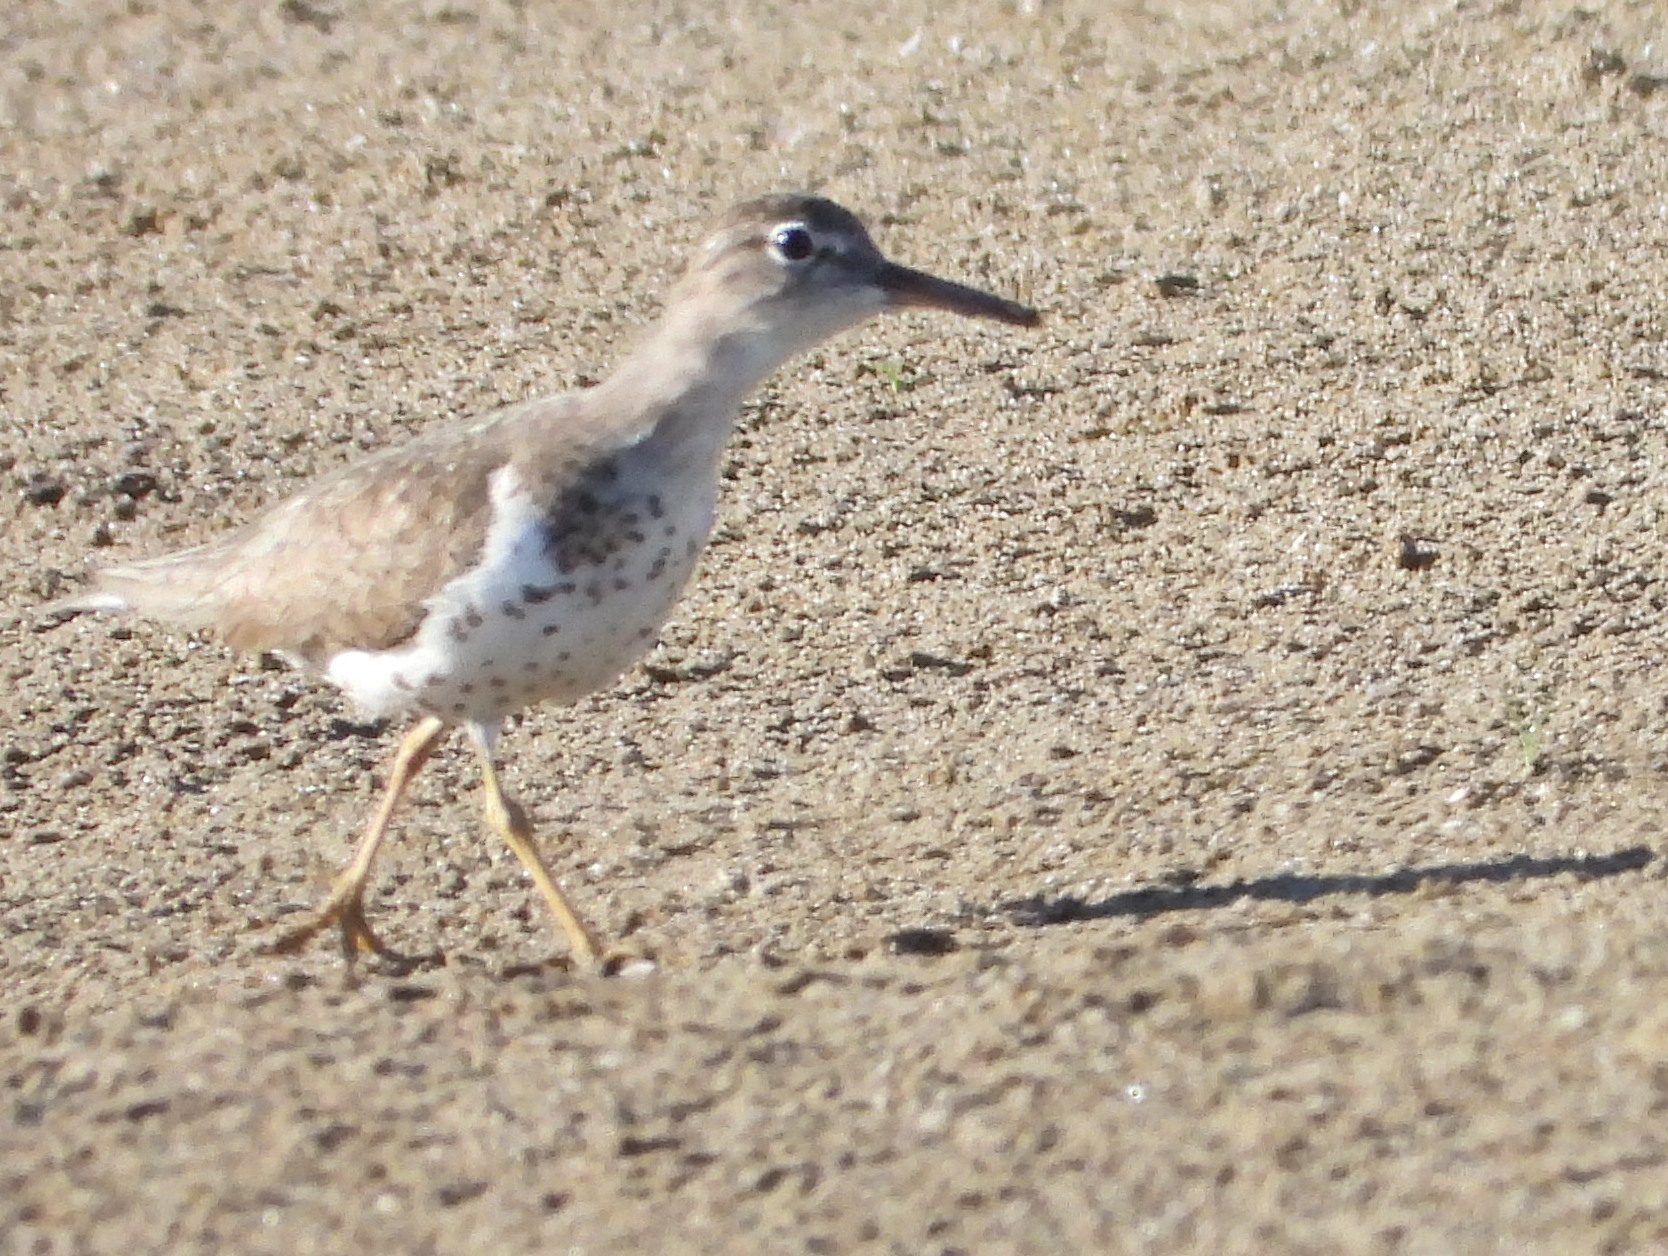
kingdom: Animalia
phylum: Chordata
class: Aves
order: Charadriiformes
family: Scolopacidae
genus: Actitis
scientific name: Actitis macularius
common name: Spotted sandpiper
